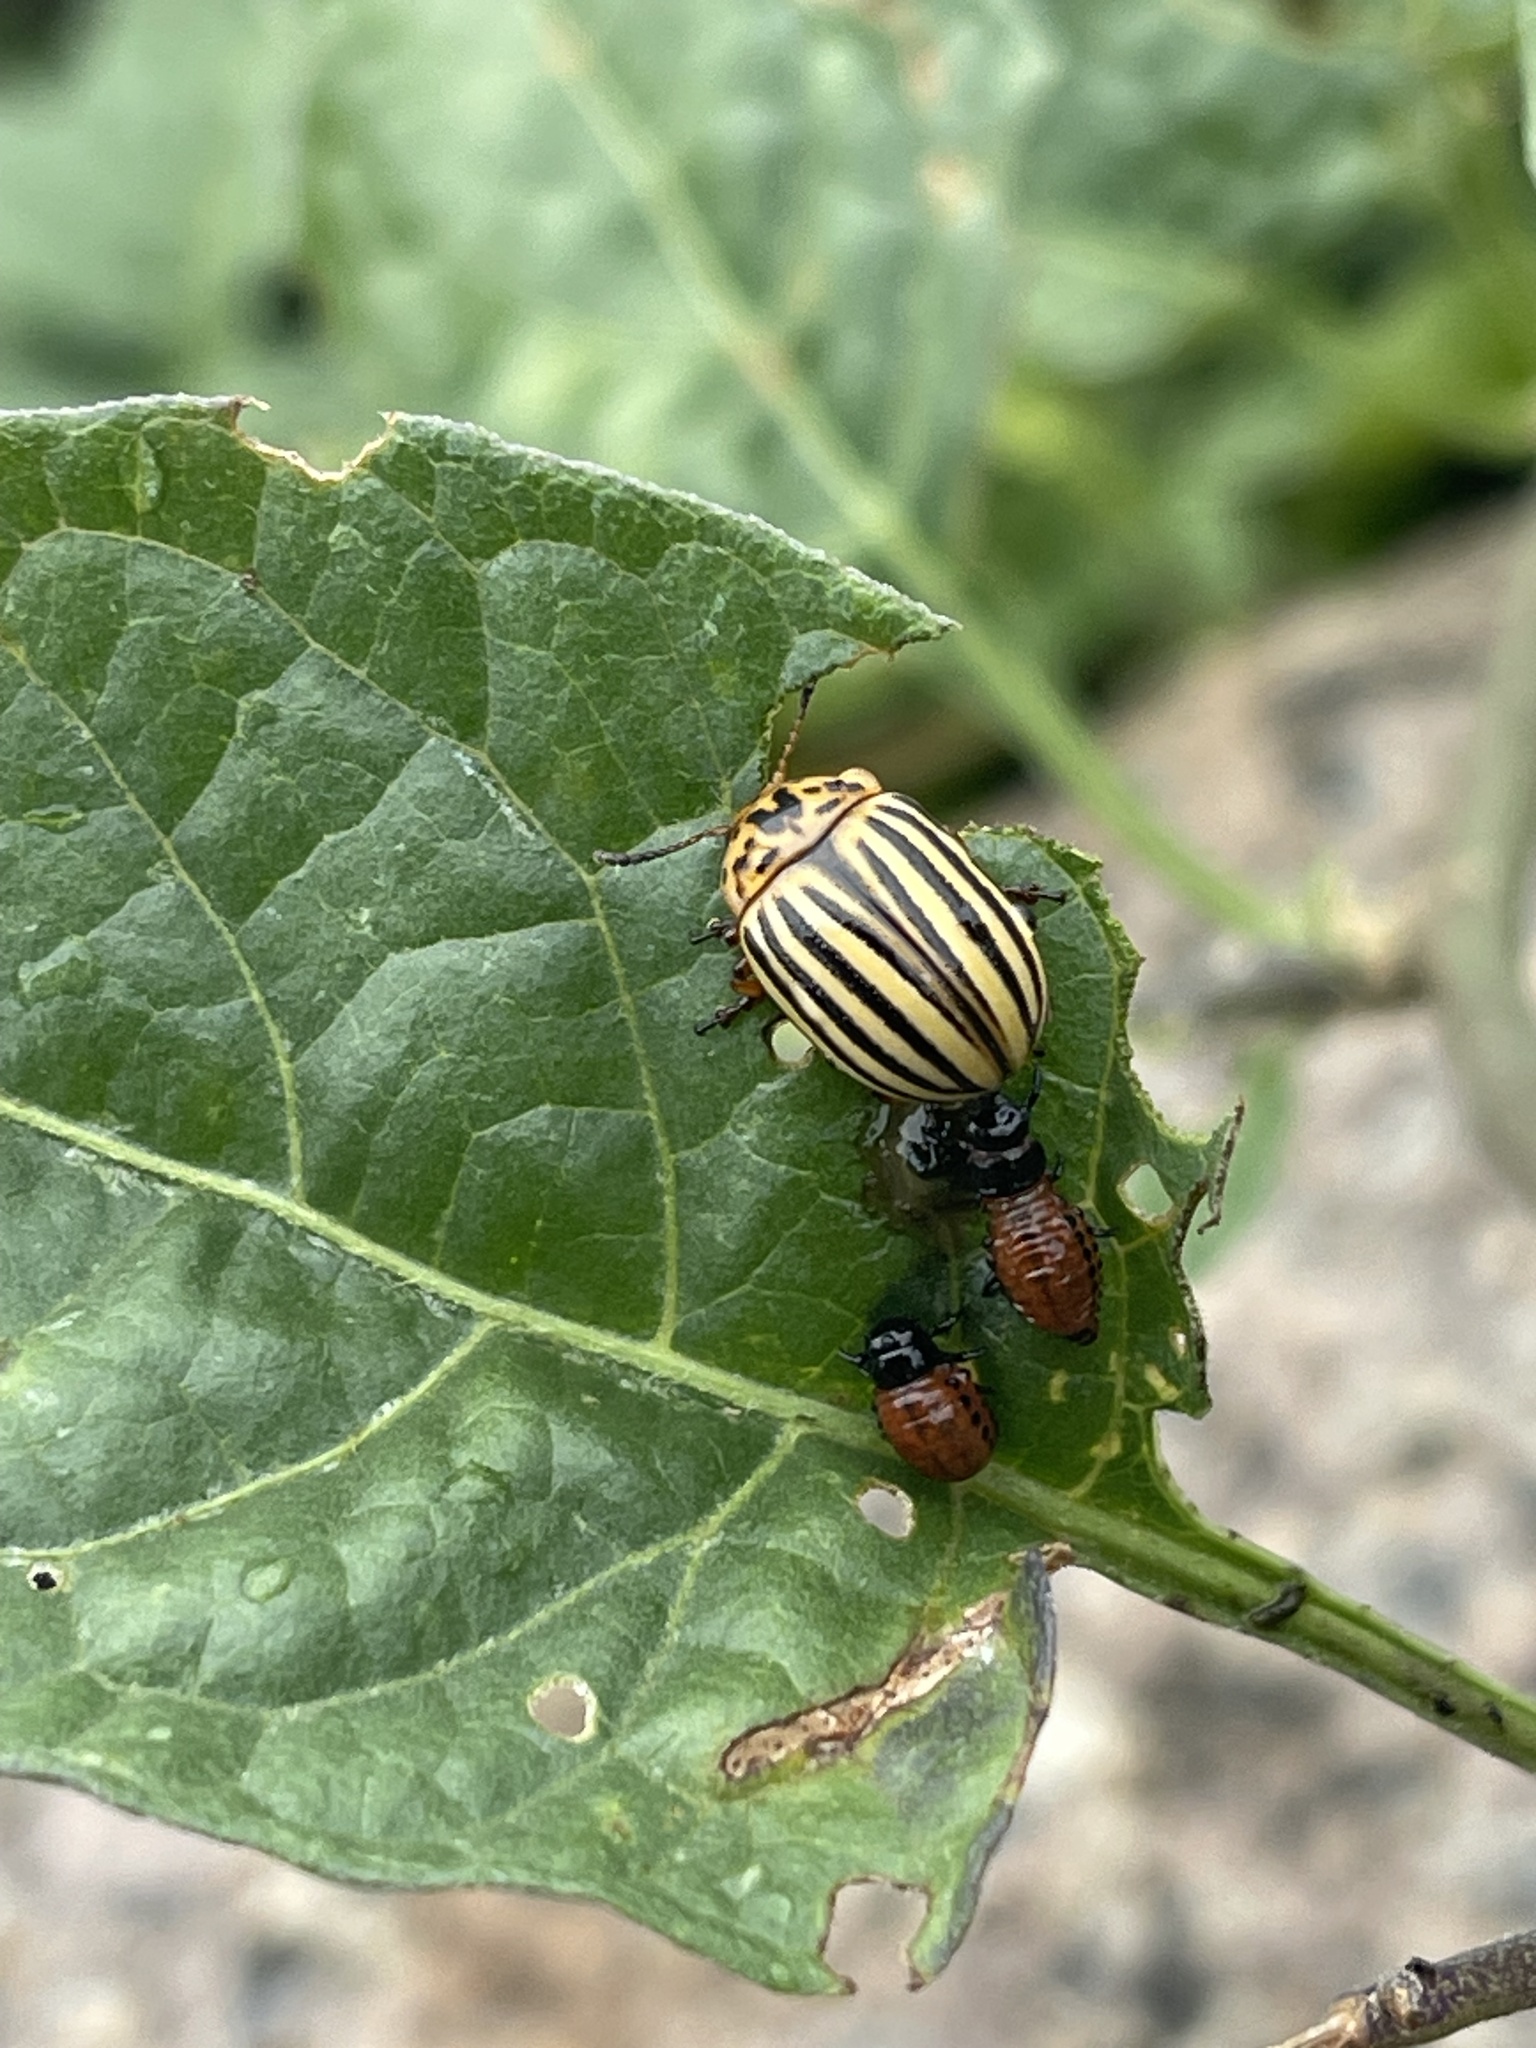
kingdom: Animalia
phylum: Arthropoda
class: Insecta
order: Coleoptera
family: Chrysomelidae
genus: Leptinotarsa
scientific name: Leptinotarsa decemlineata
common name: Colorado potato beetle
